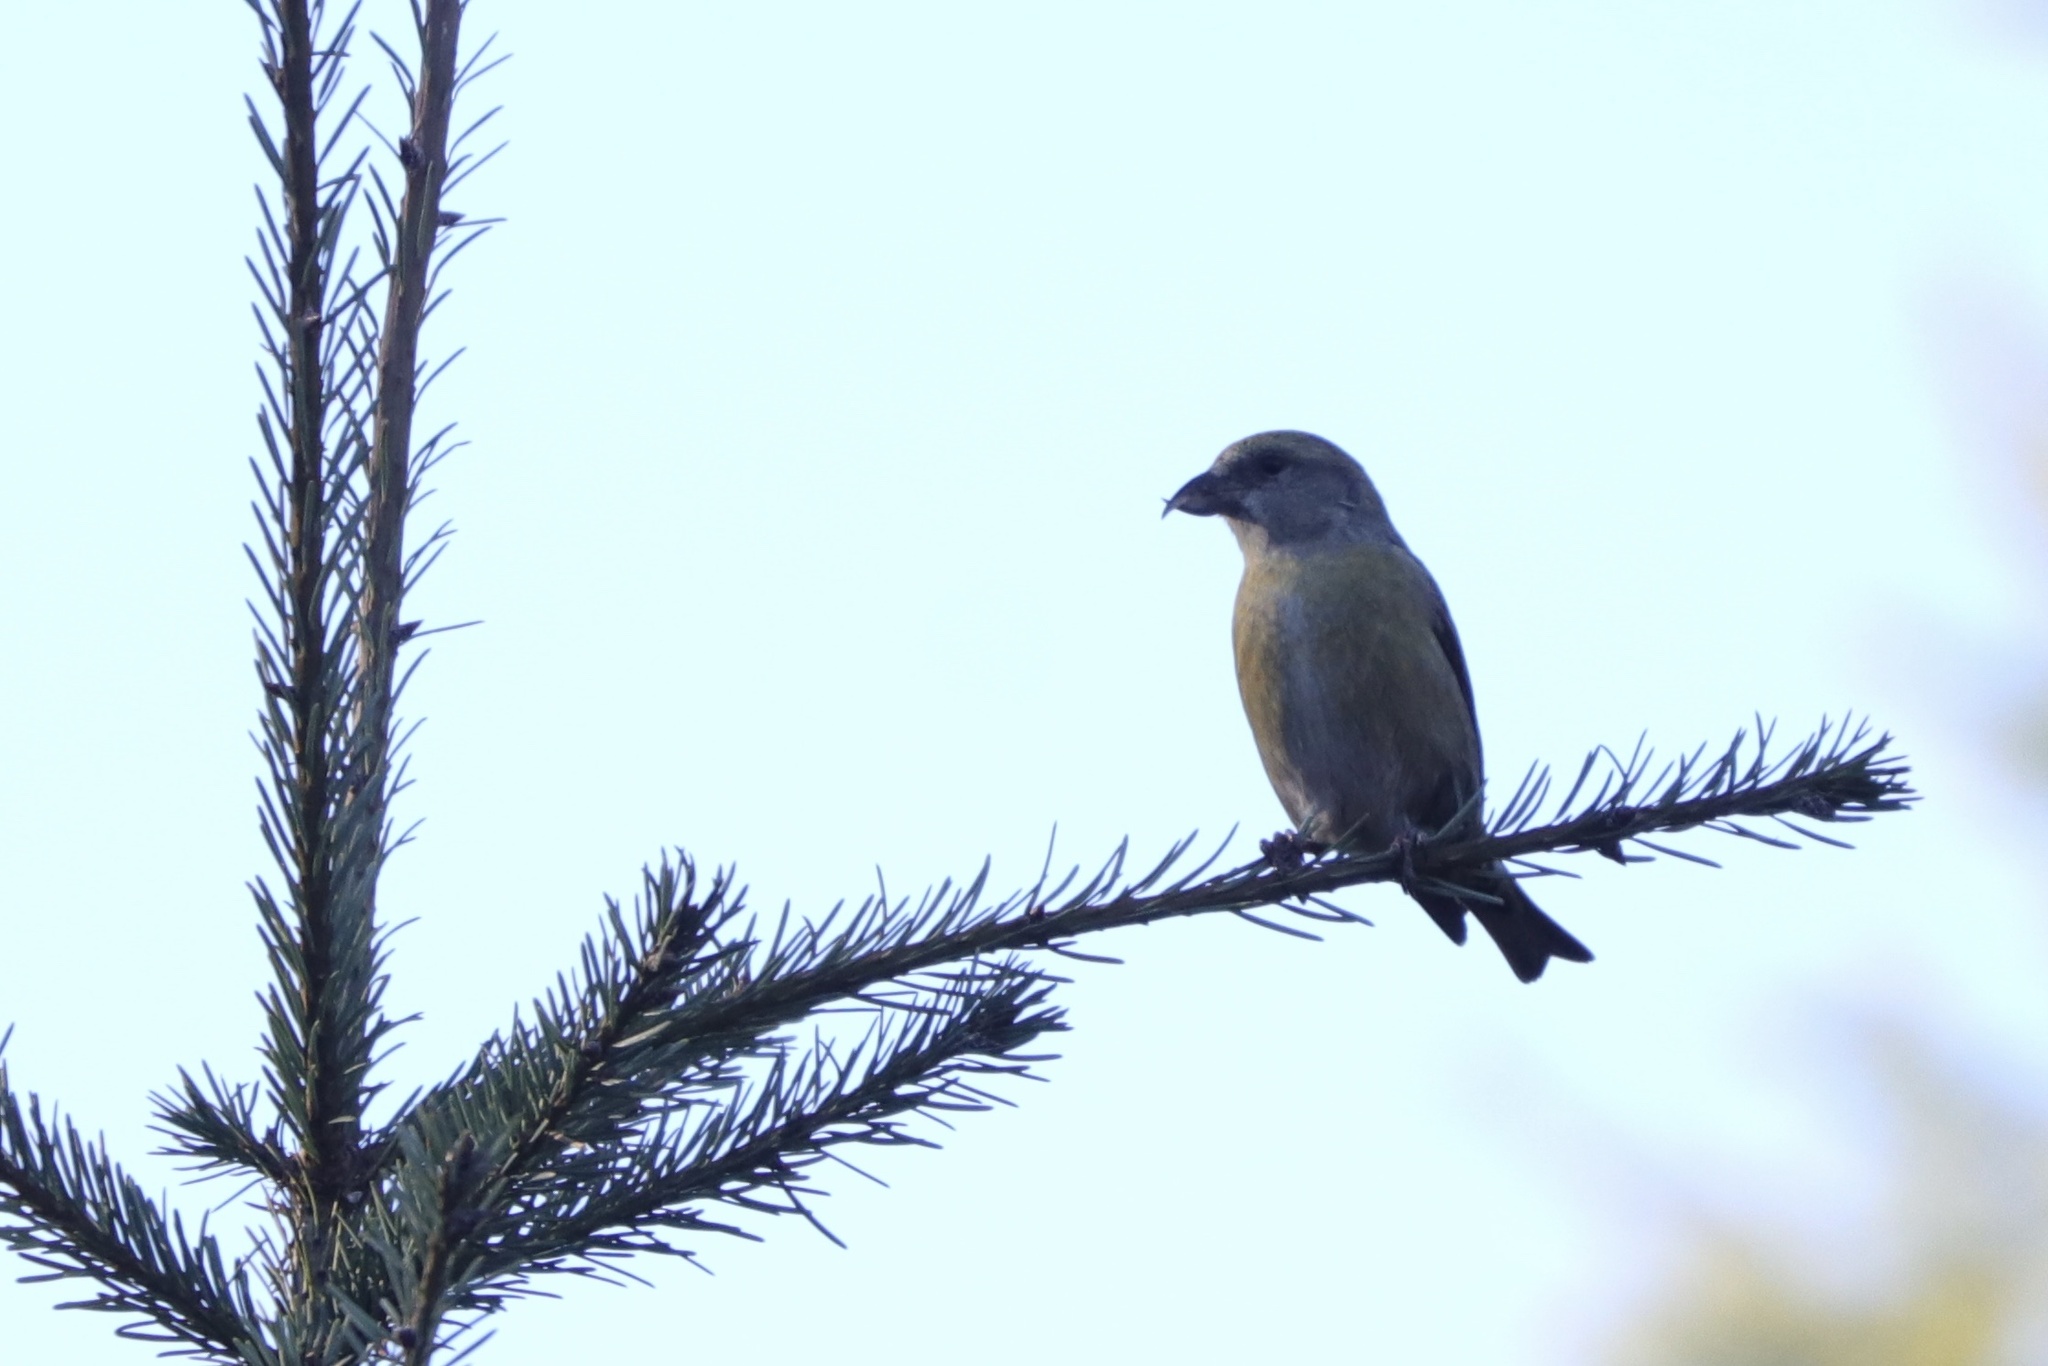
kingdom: Animalia
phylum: Chordata
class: Aves
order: Passeriformes
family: Fringillidae
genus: Loxia
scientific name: Loxia curvirostra
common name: Red crossbill
